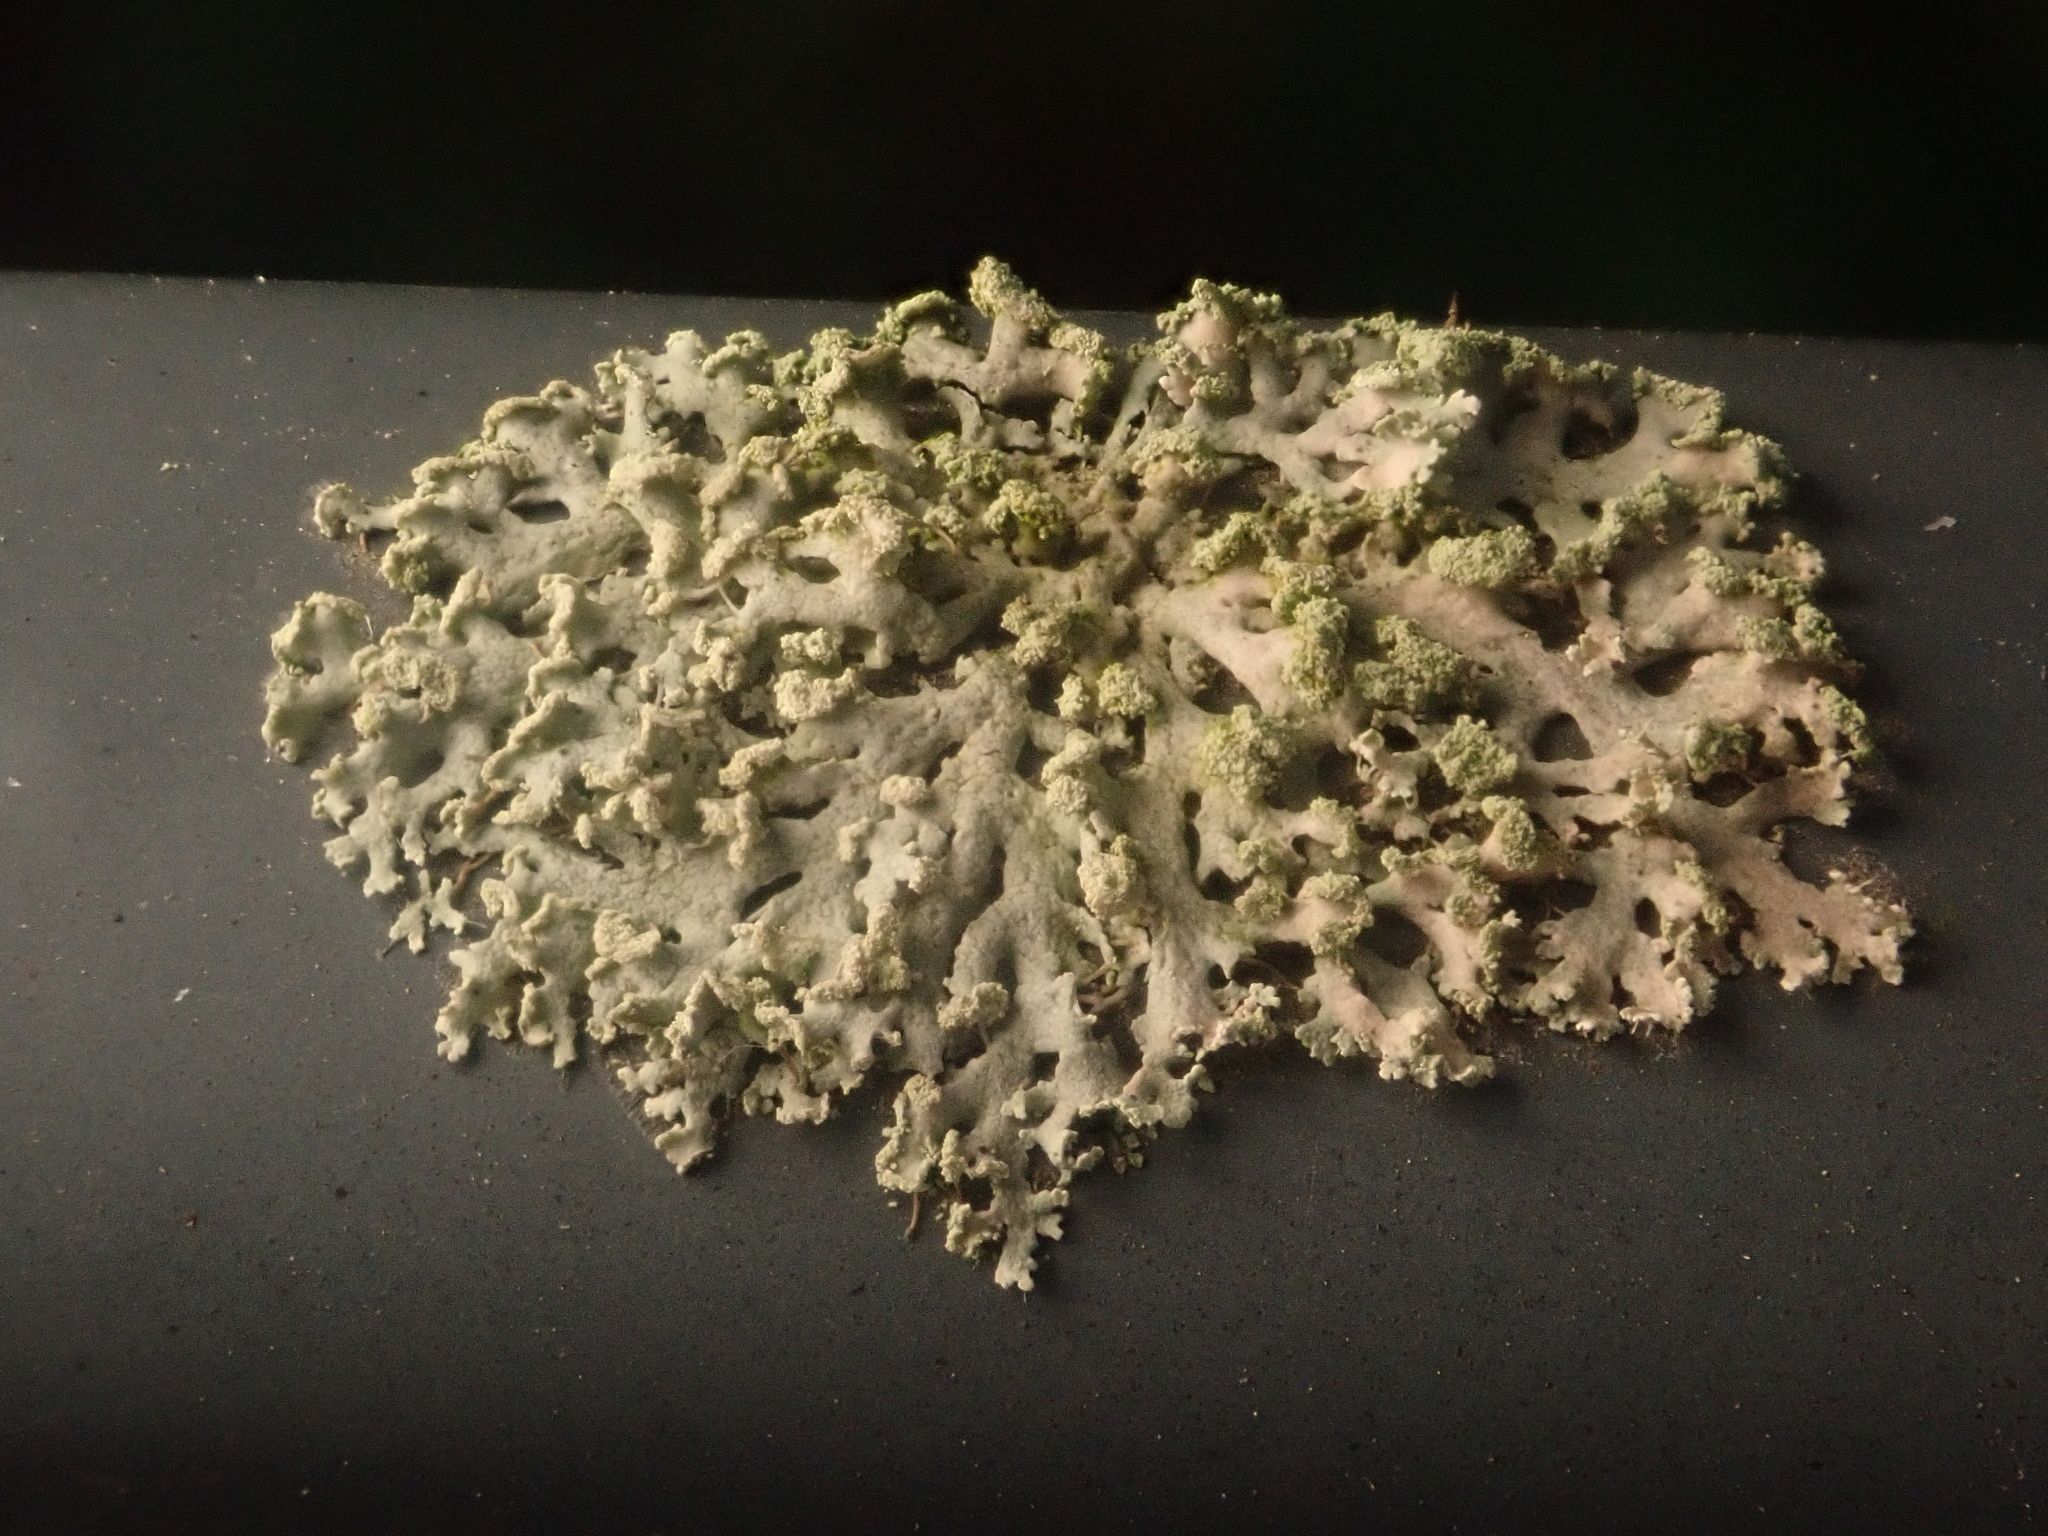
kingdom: Fungi
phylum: Ascomycota
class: Lecanoromycetes
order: Caliciales
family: Physciaceae
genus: Physcia
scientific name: Physcia tenella
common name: Fringed rosette lichen
